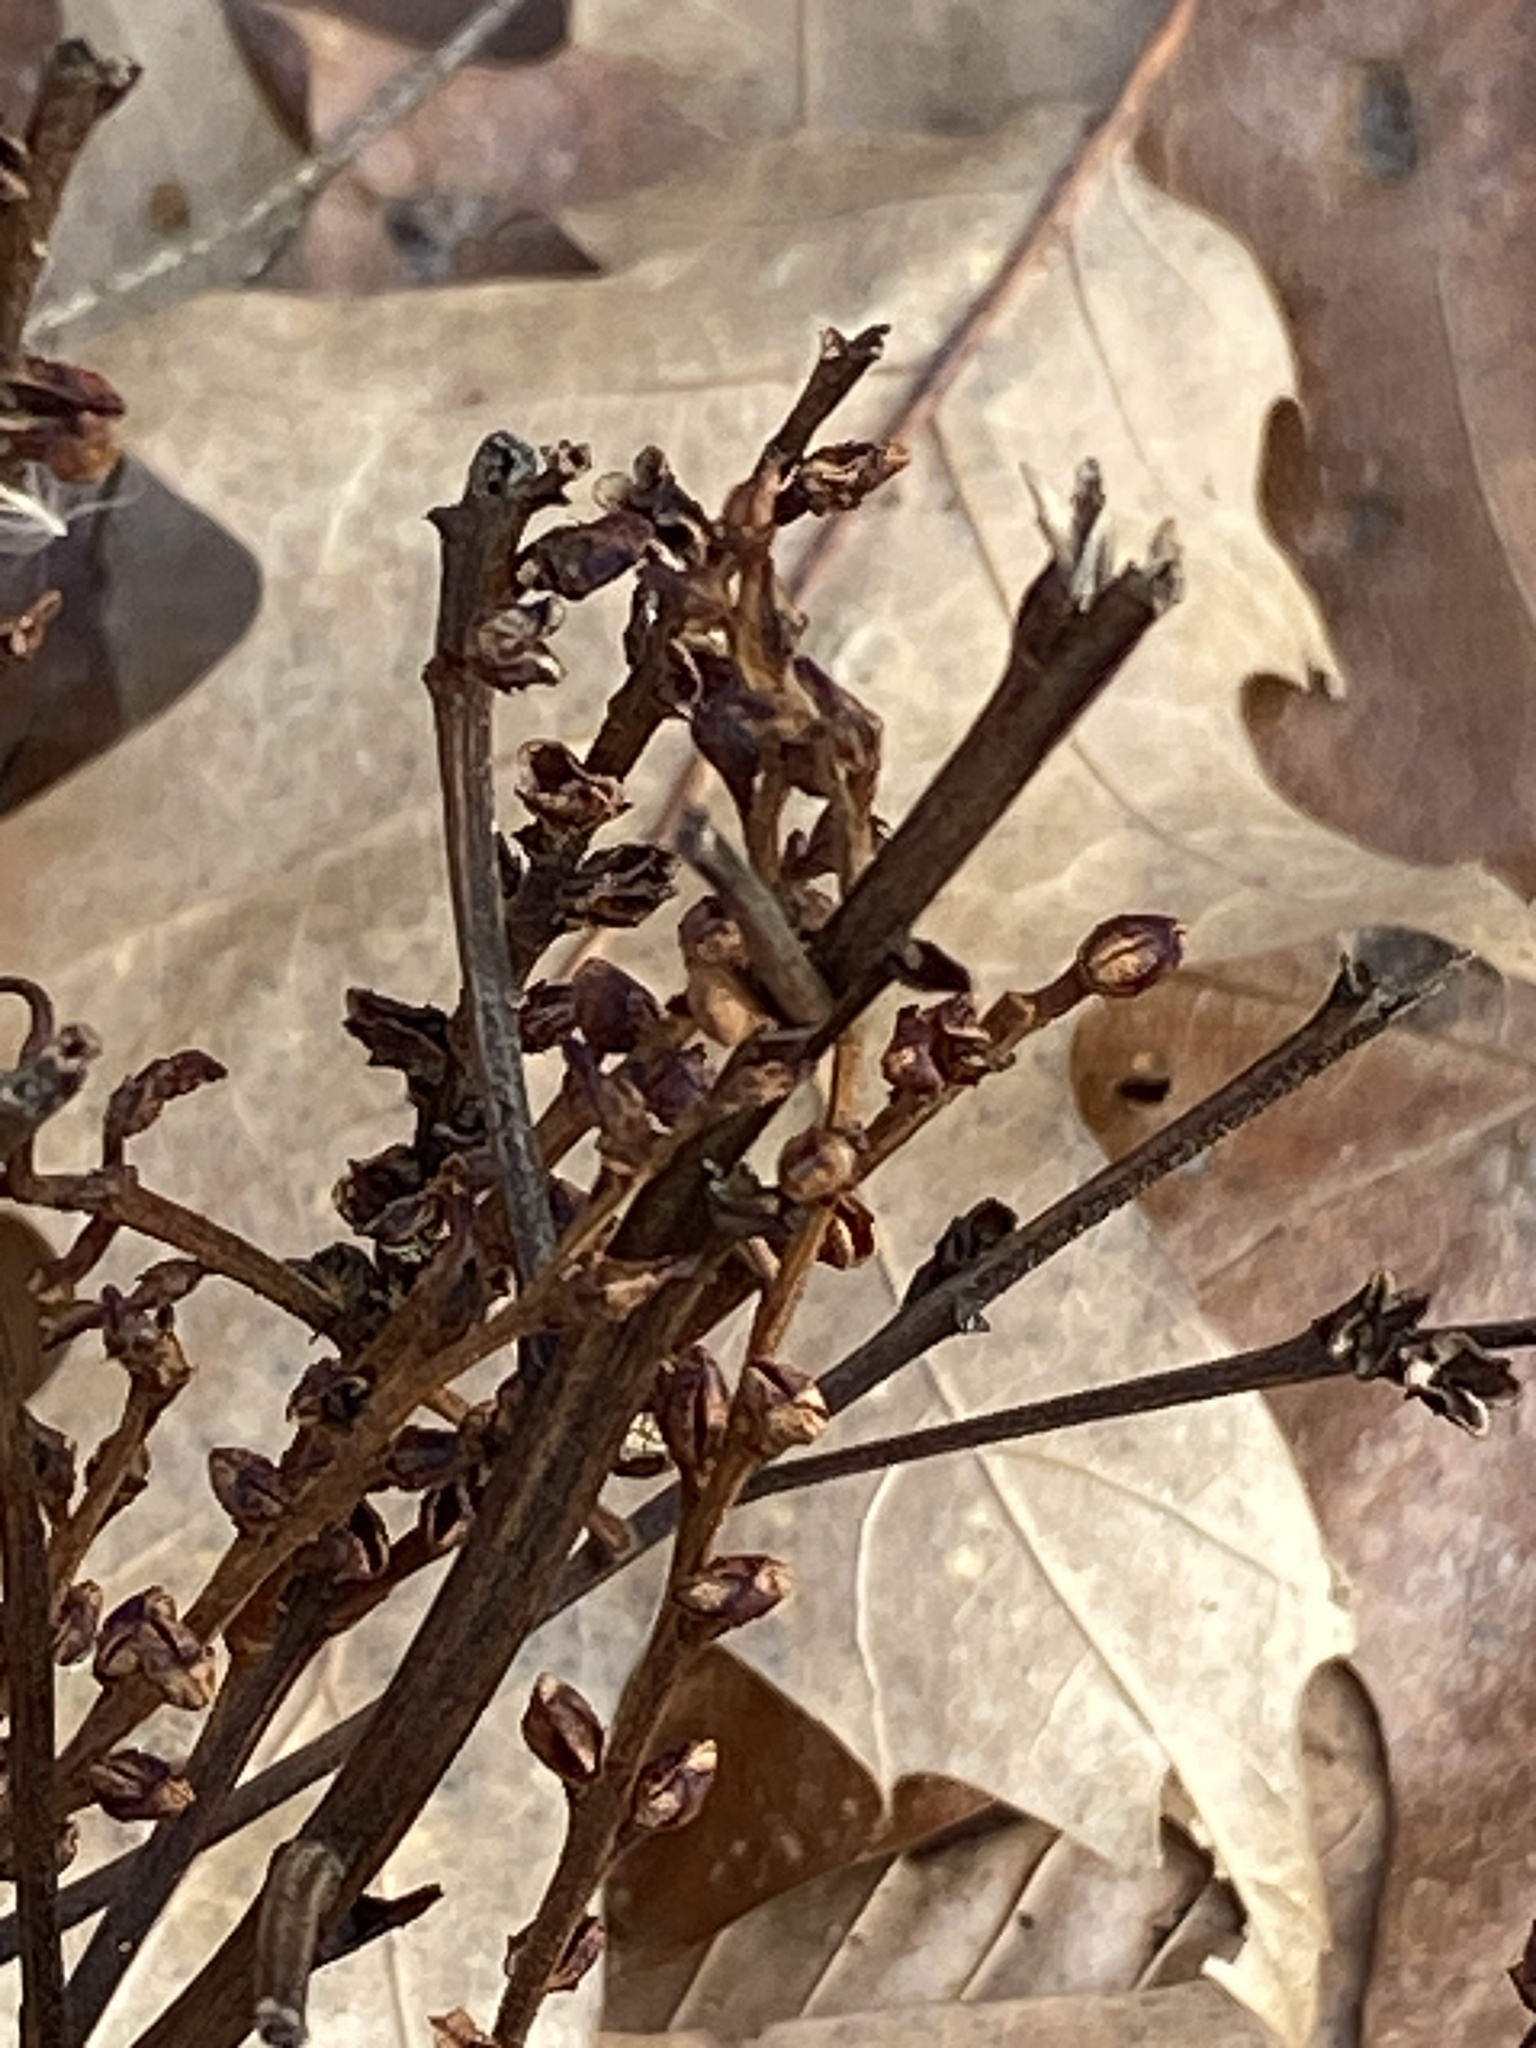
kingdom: Plantae
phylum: Tracheophyta
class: Magnoliopsida
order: Lamiales
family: Orobanchaceae
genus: Epifagus
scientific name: Epifagus virginiana
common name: Beechdrops
